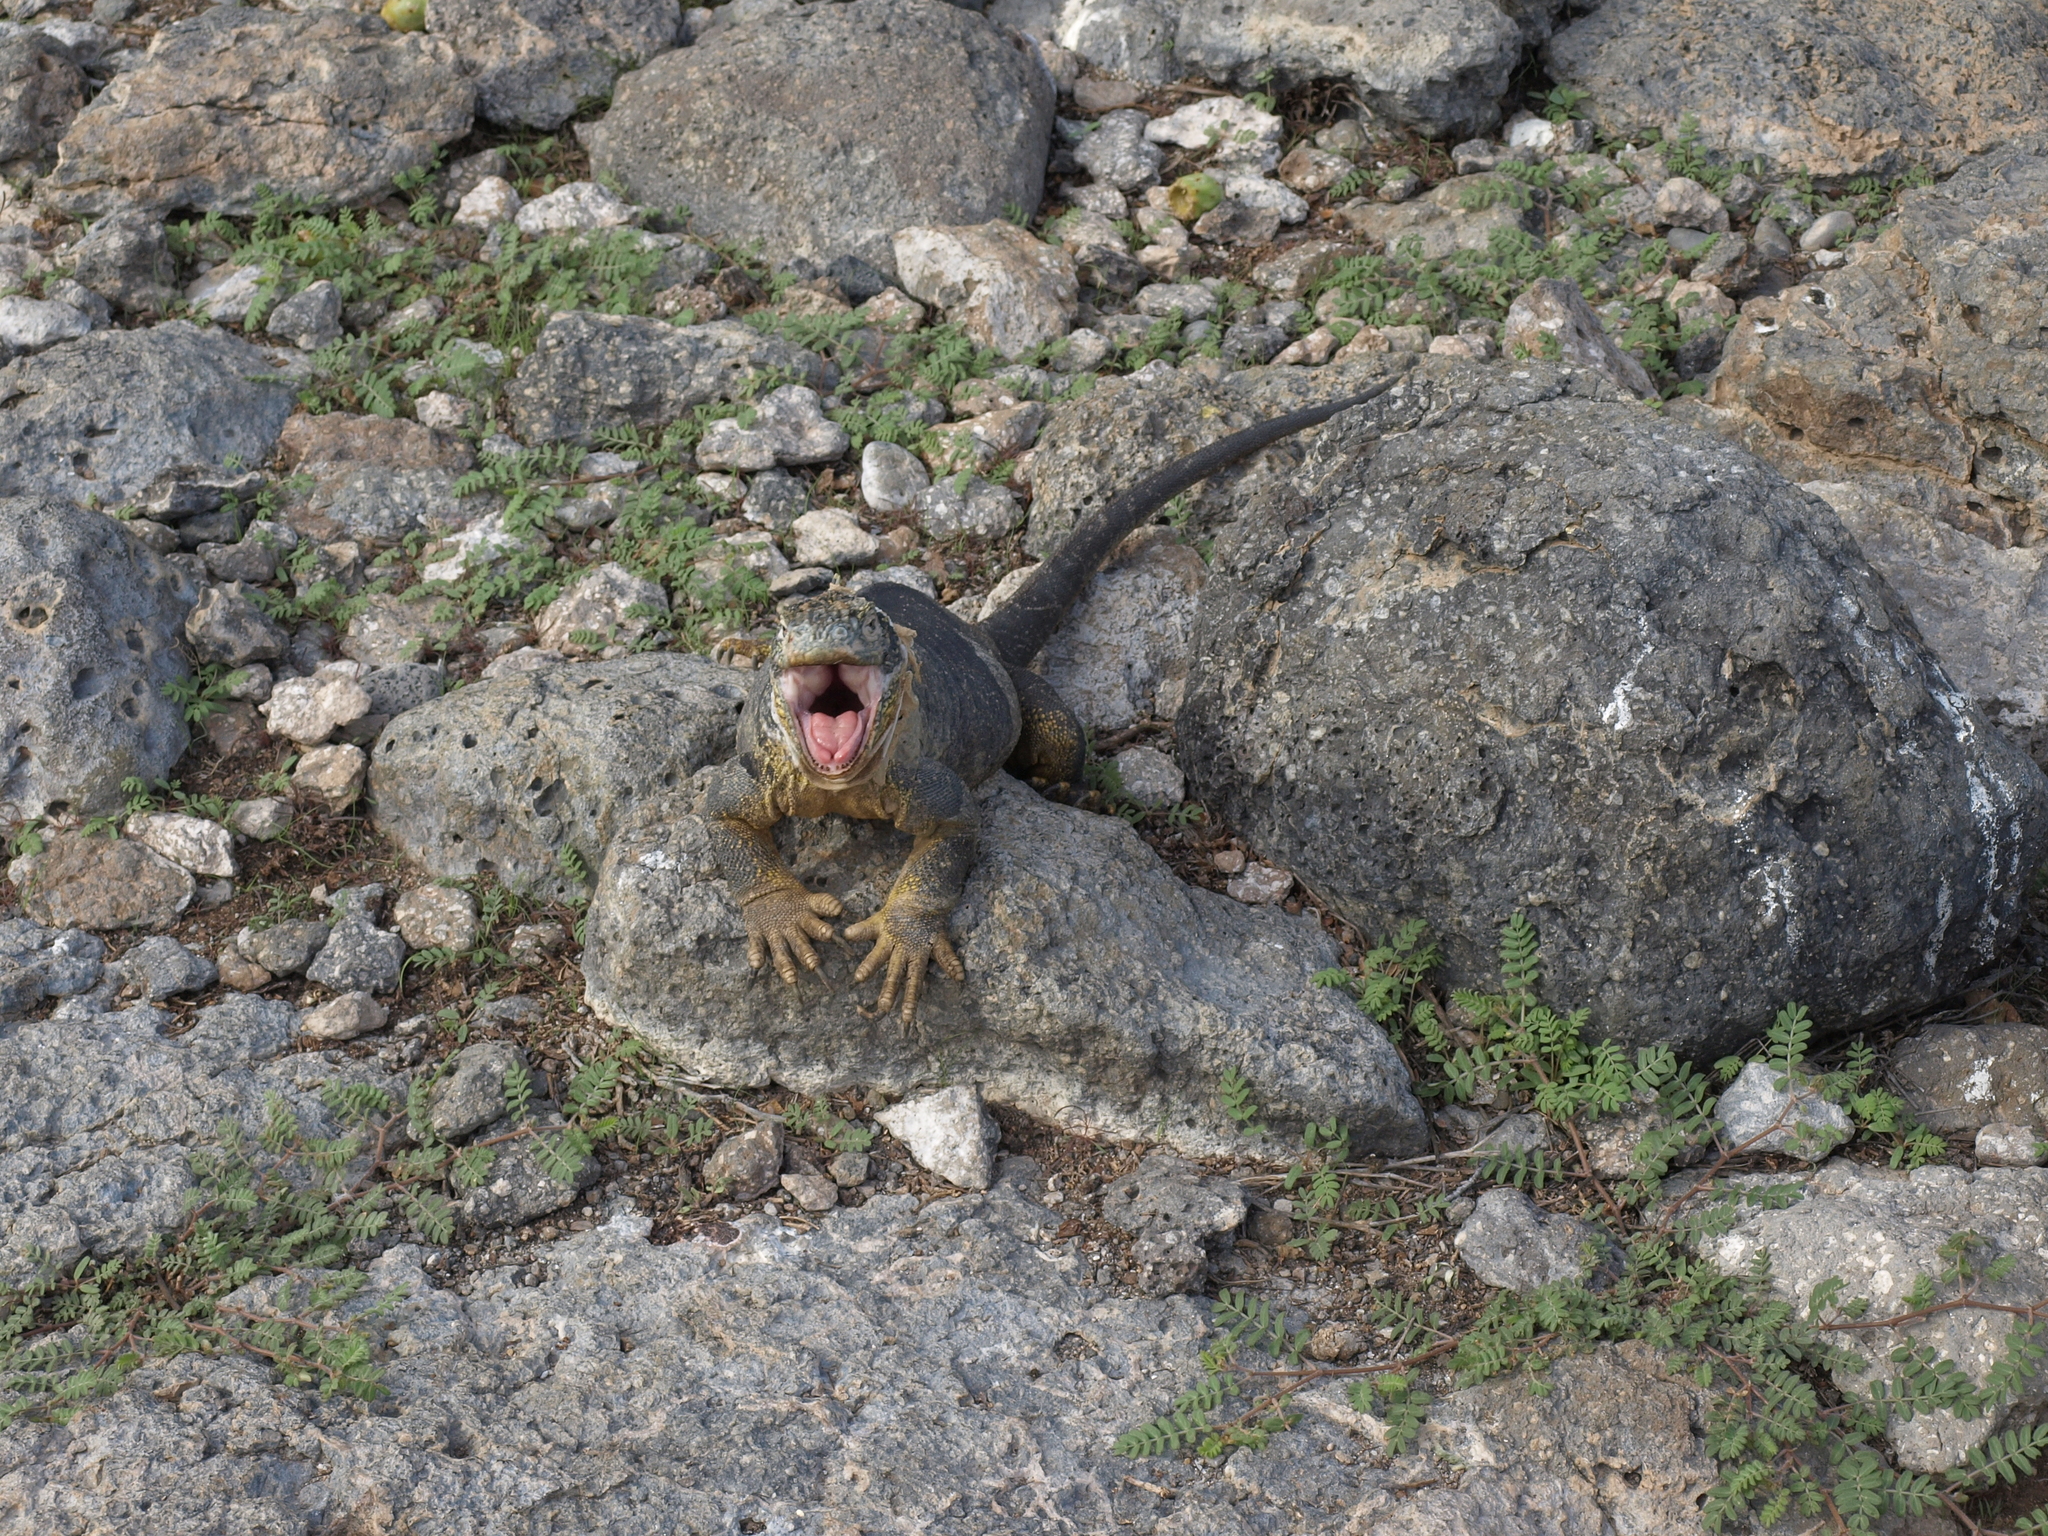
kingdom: Animalia
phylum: Chordata
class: Squamata
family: Iguanidae
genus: Conolophus
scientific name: Conolophus subcristatus
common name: Galapagos land iguana
